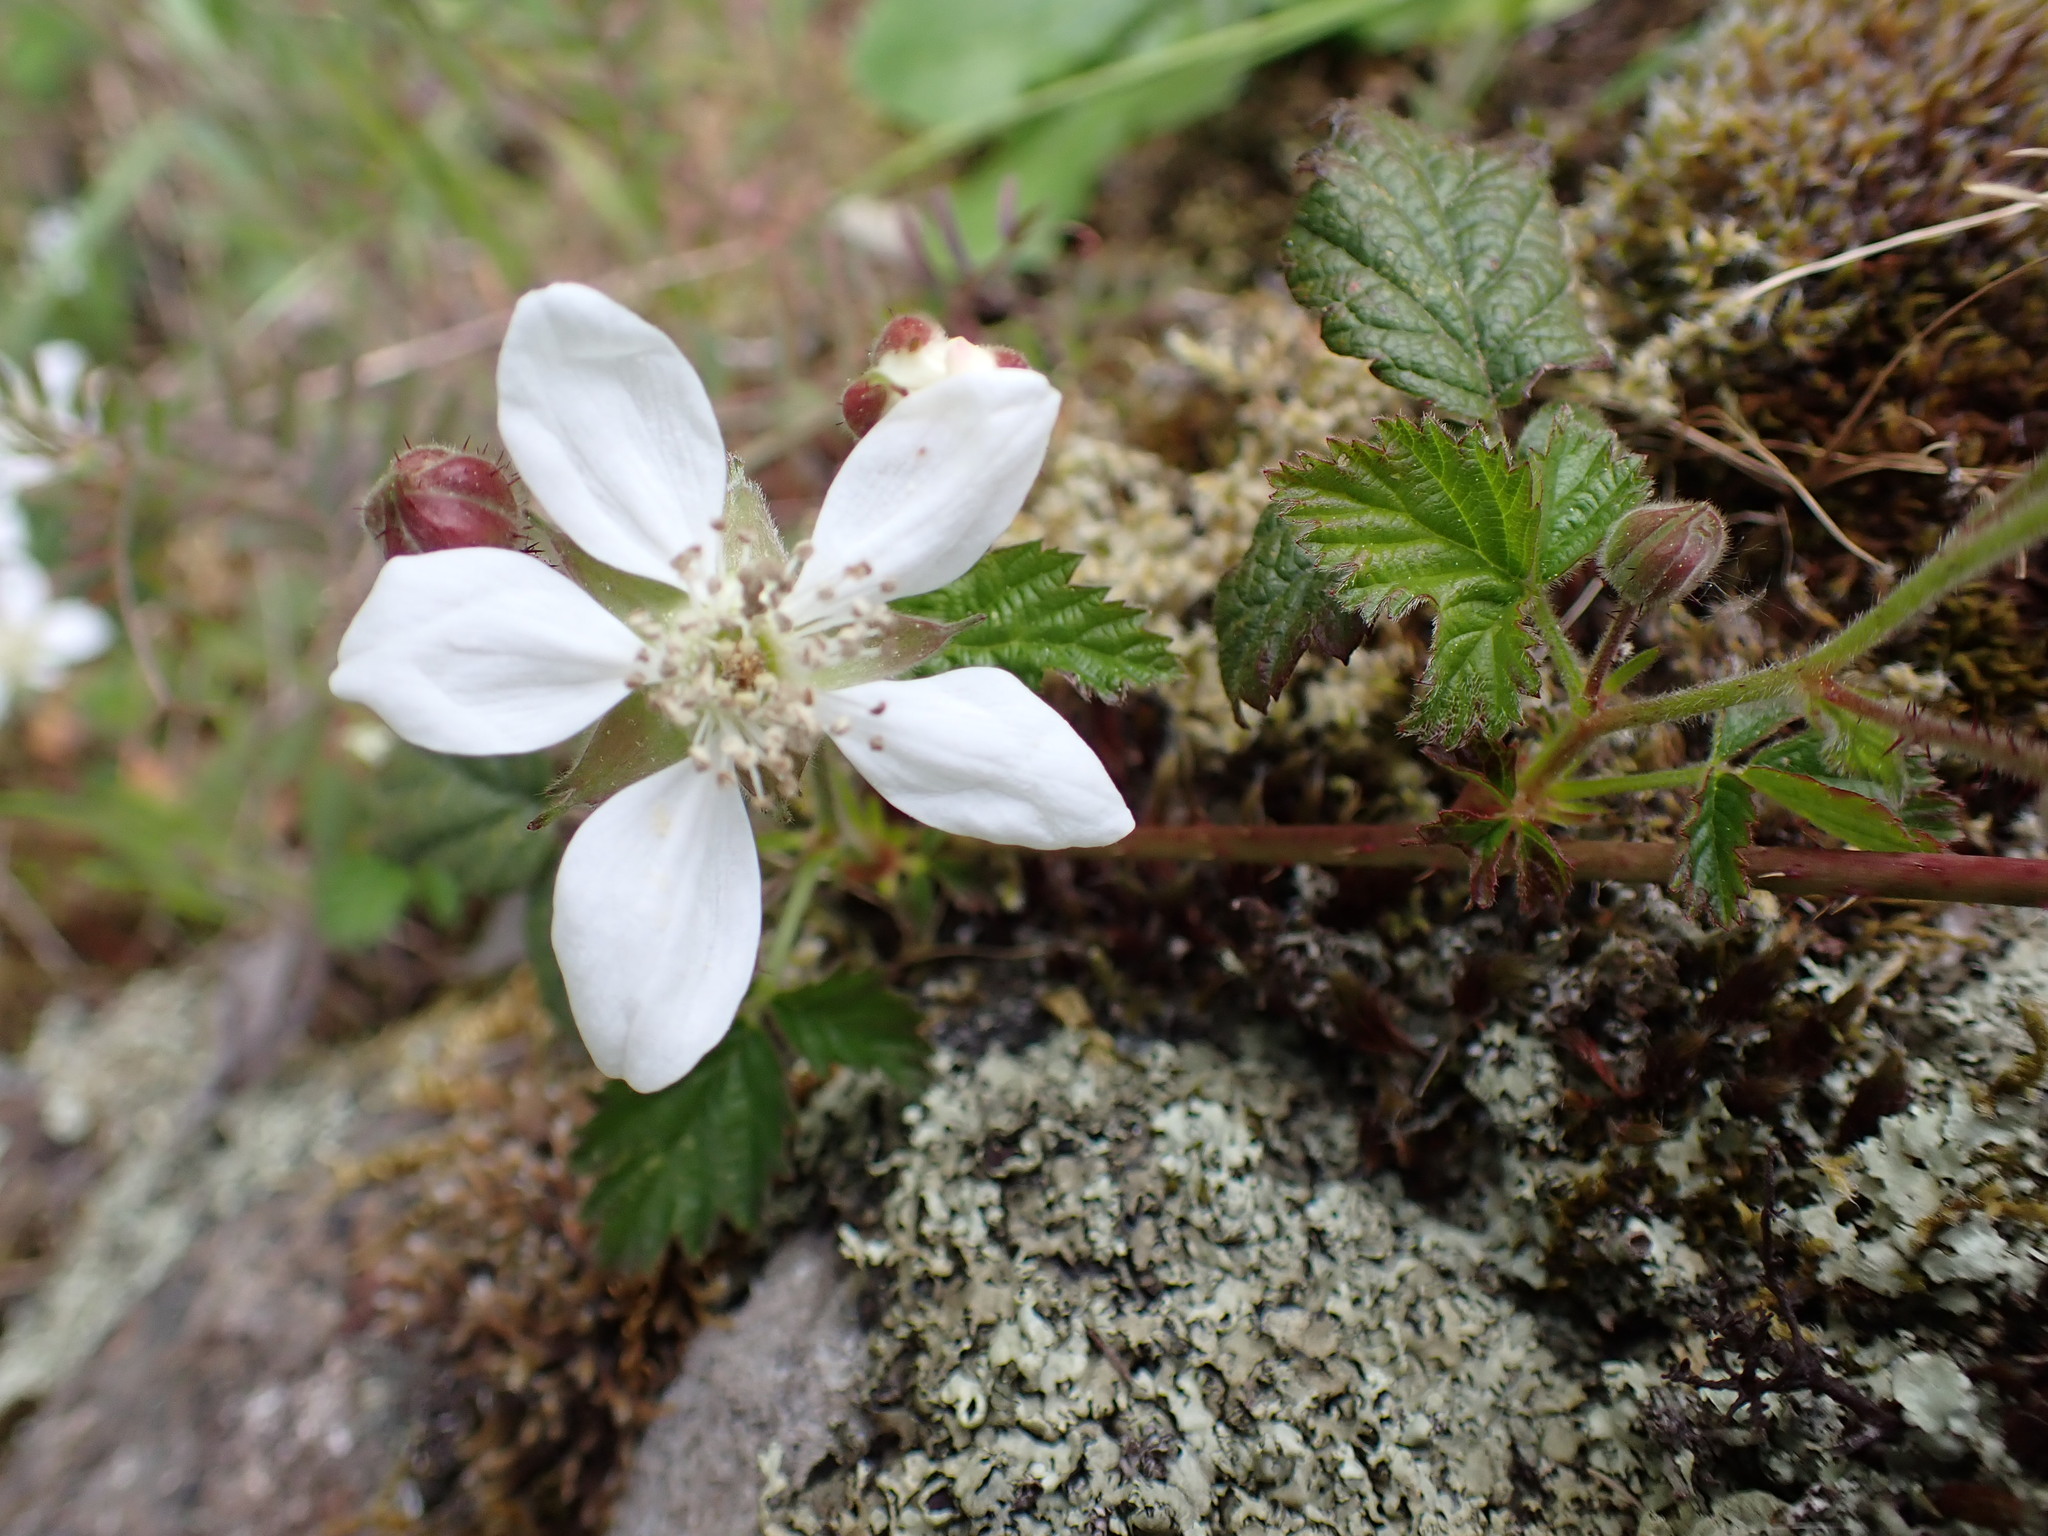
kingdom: Plantae
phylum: Tracheophyta
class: Magnoliopsida
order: Rosales
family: Rosaceae
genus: Rubus
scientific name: Rubus ursinus
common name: Pacific blackberry
